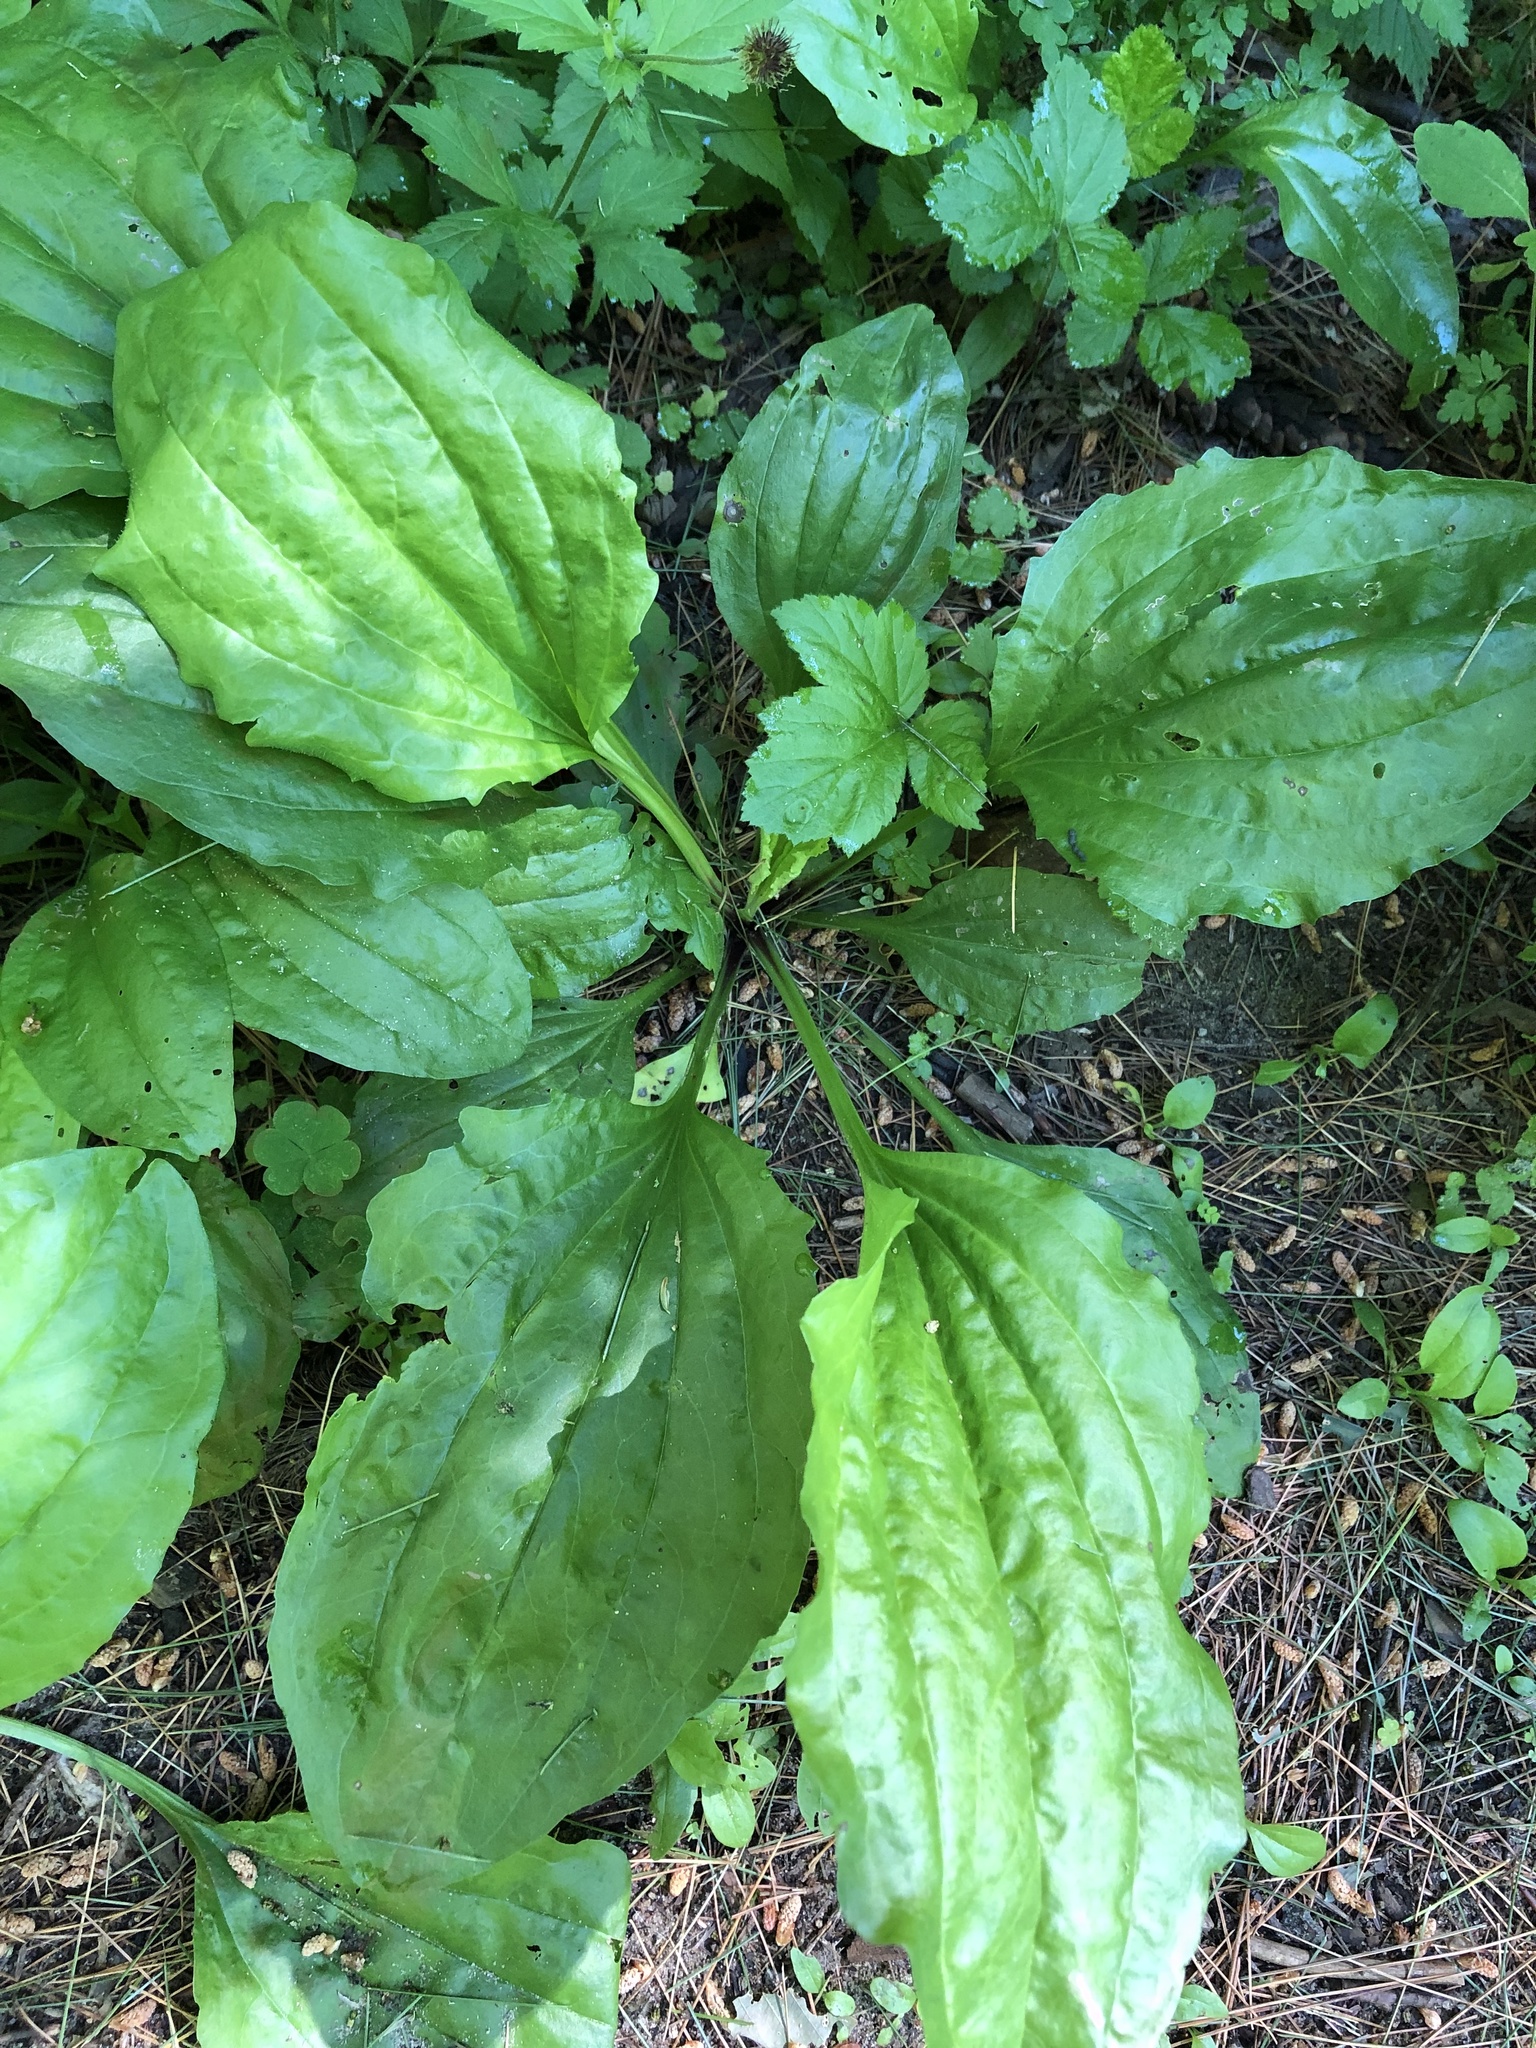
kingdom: Plantae
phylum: Tracheophyta
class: Magnoliopsida
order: Lamiales
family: Plantaginaceae
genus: Plantago
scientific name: Plantago rugelii
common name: American plantain
